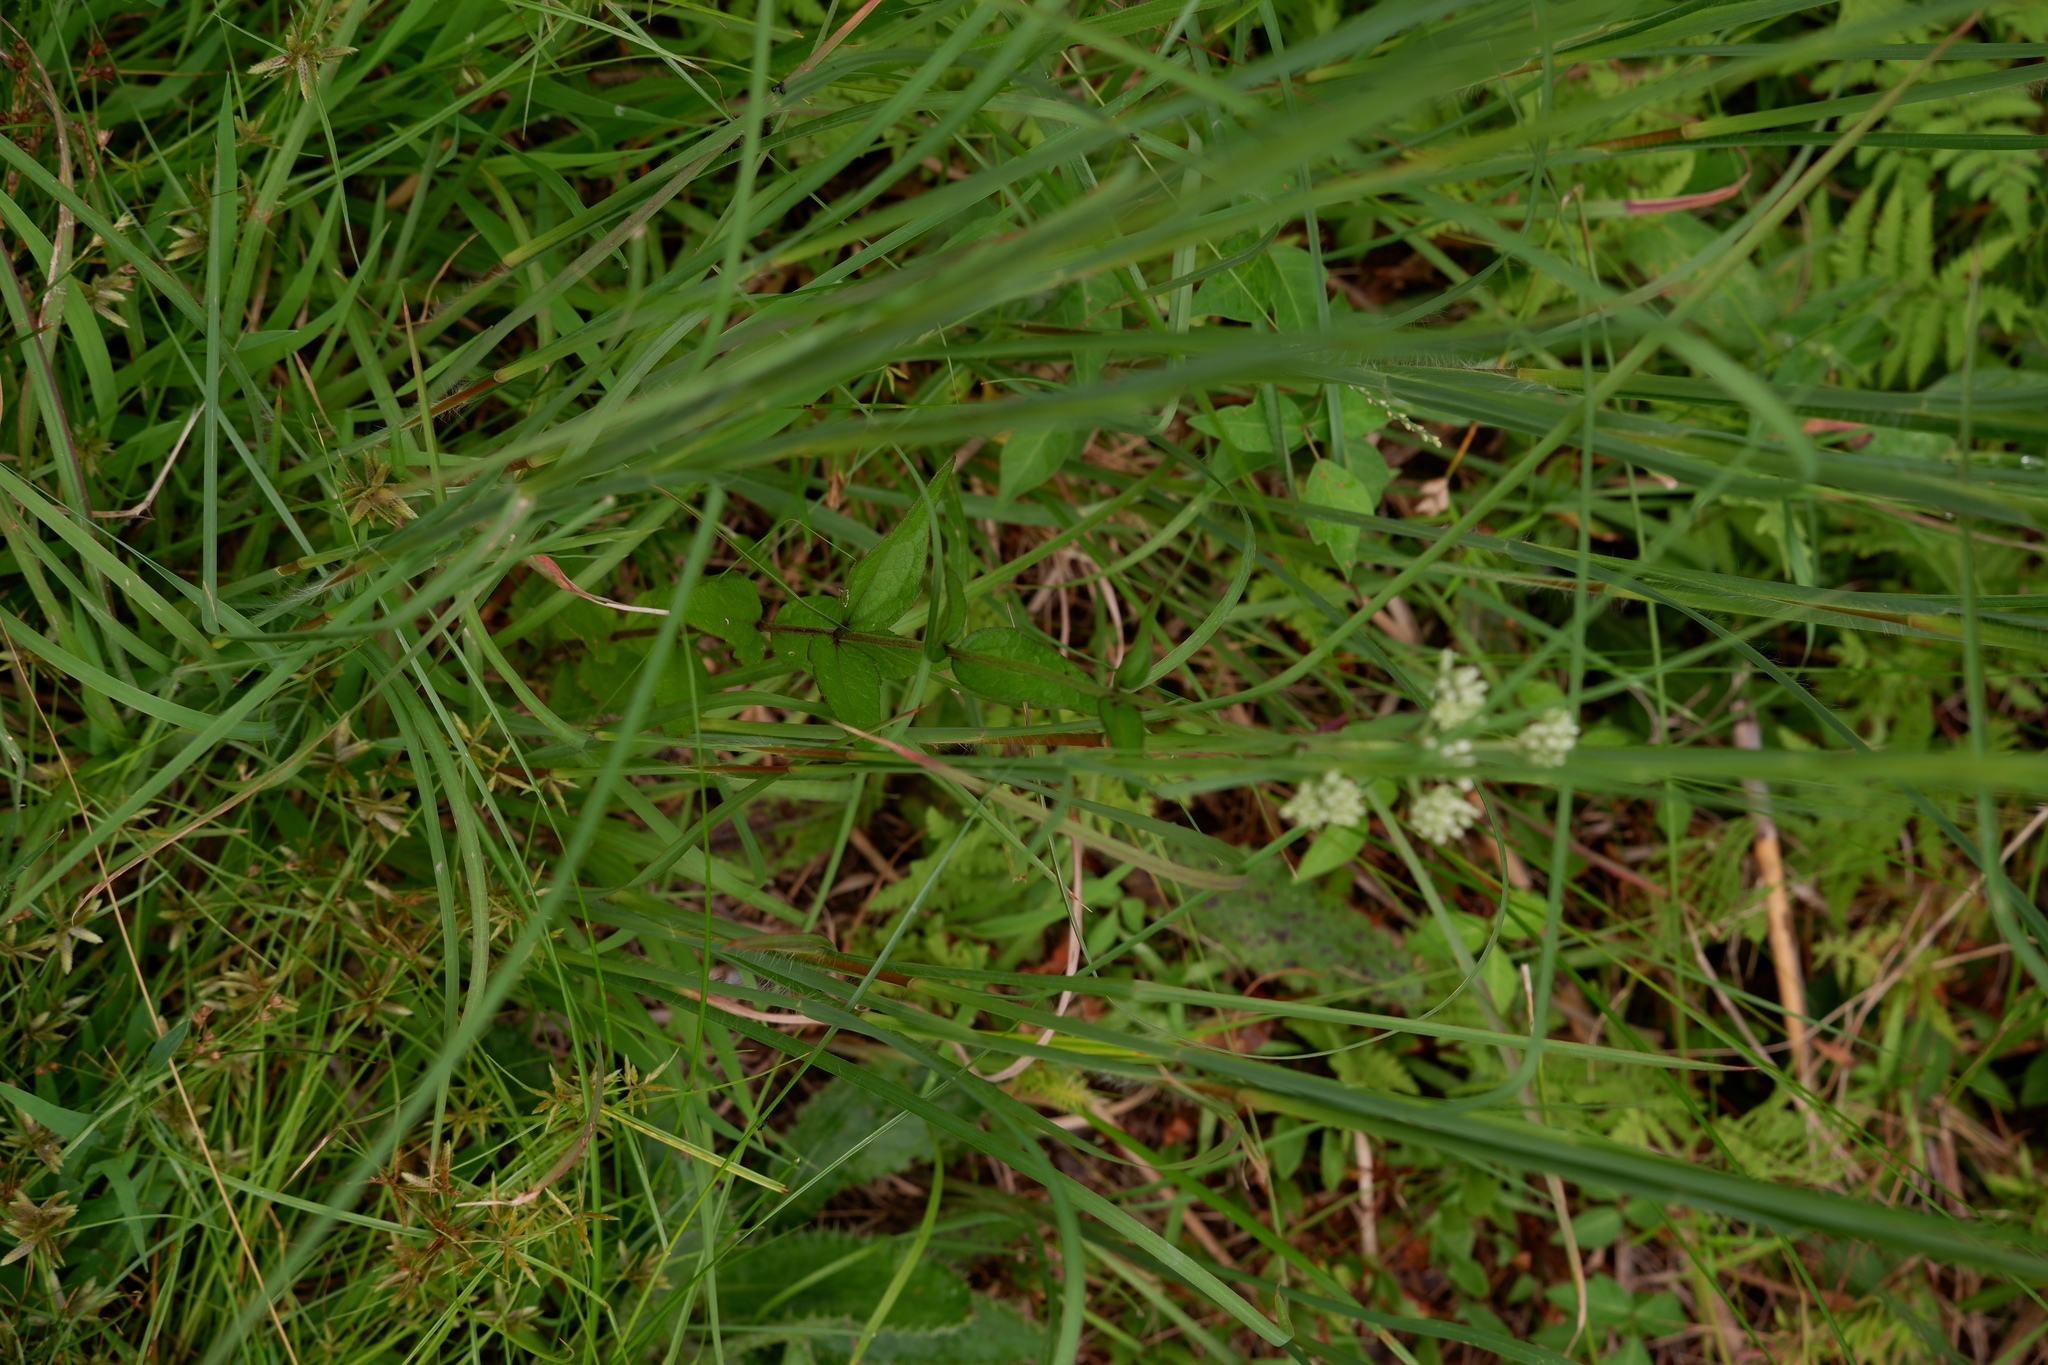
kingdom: Plantae
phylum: Tracheophyta
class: Magnoliopsida
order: Asterales
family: Asteraceae
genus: Eupatorium
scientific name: Eupatorium pilosum
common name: Rough boneset
